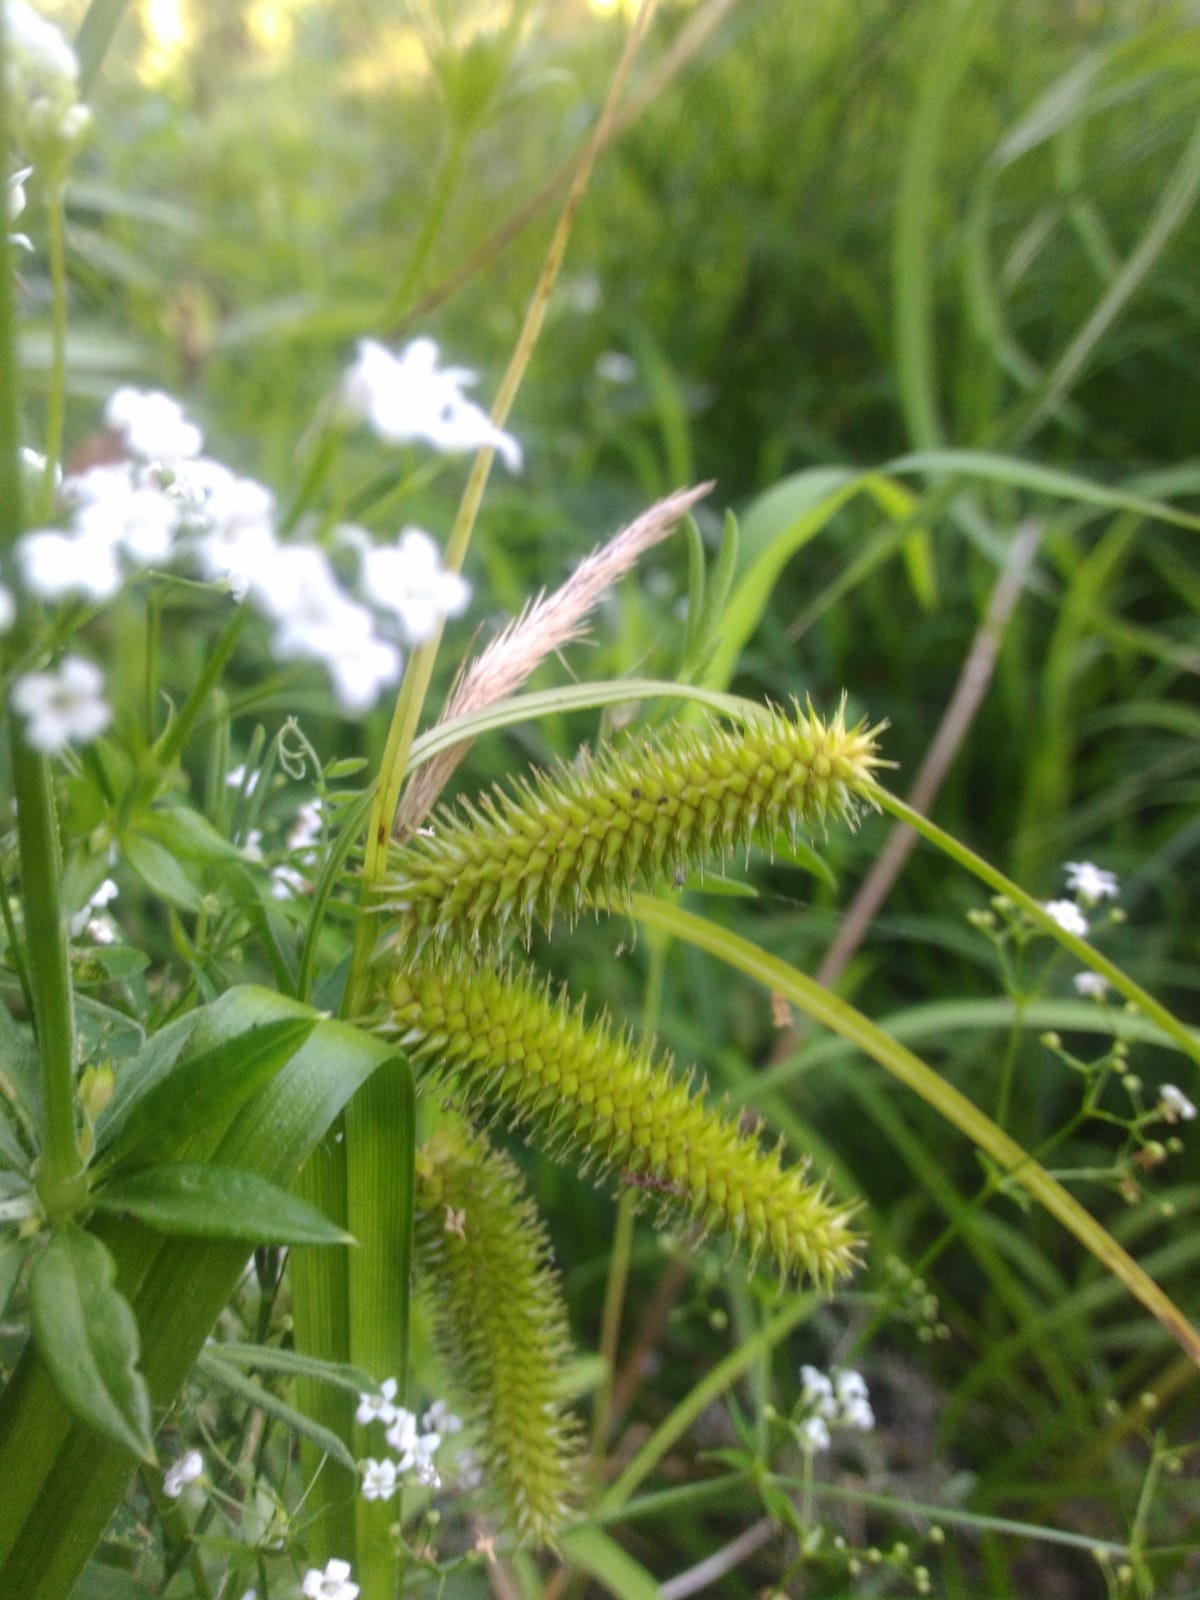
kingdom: Plantae
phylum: Tracheophyta
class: Liliopsida
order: Poales
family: Cyperaceae
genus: Carex
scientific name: Carex pseudocyperus
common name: Cyperus sedge
